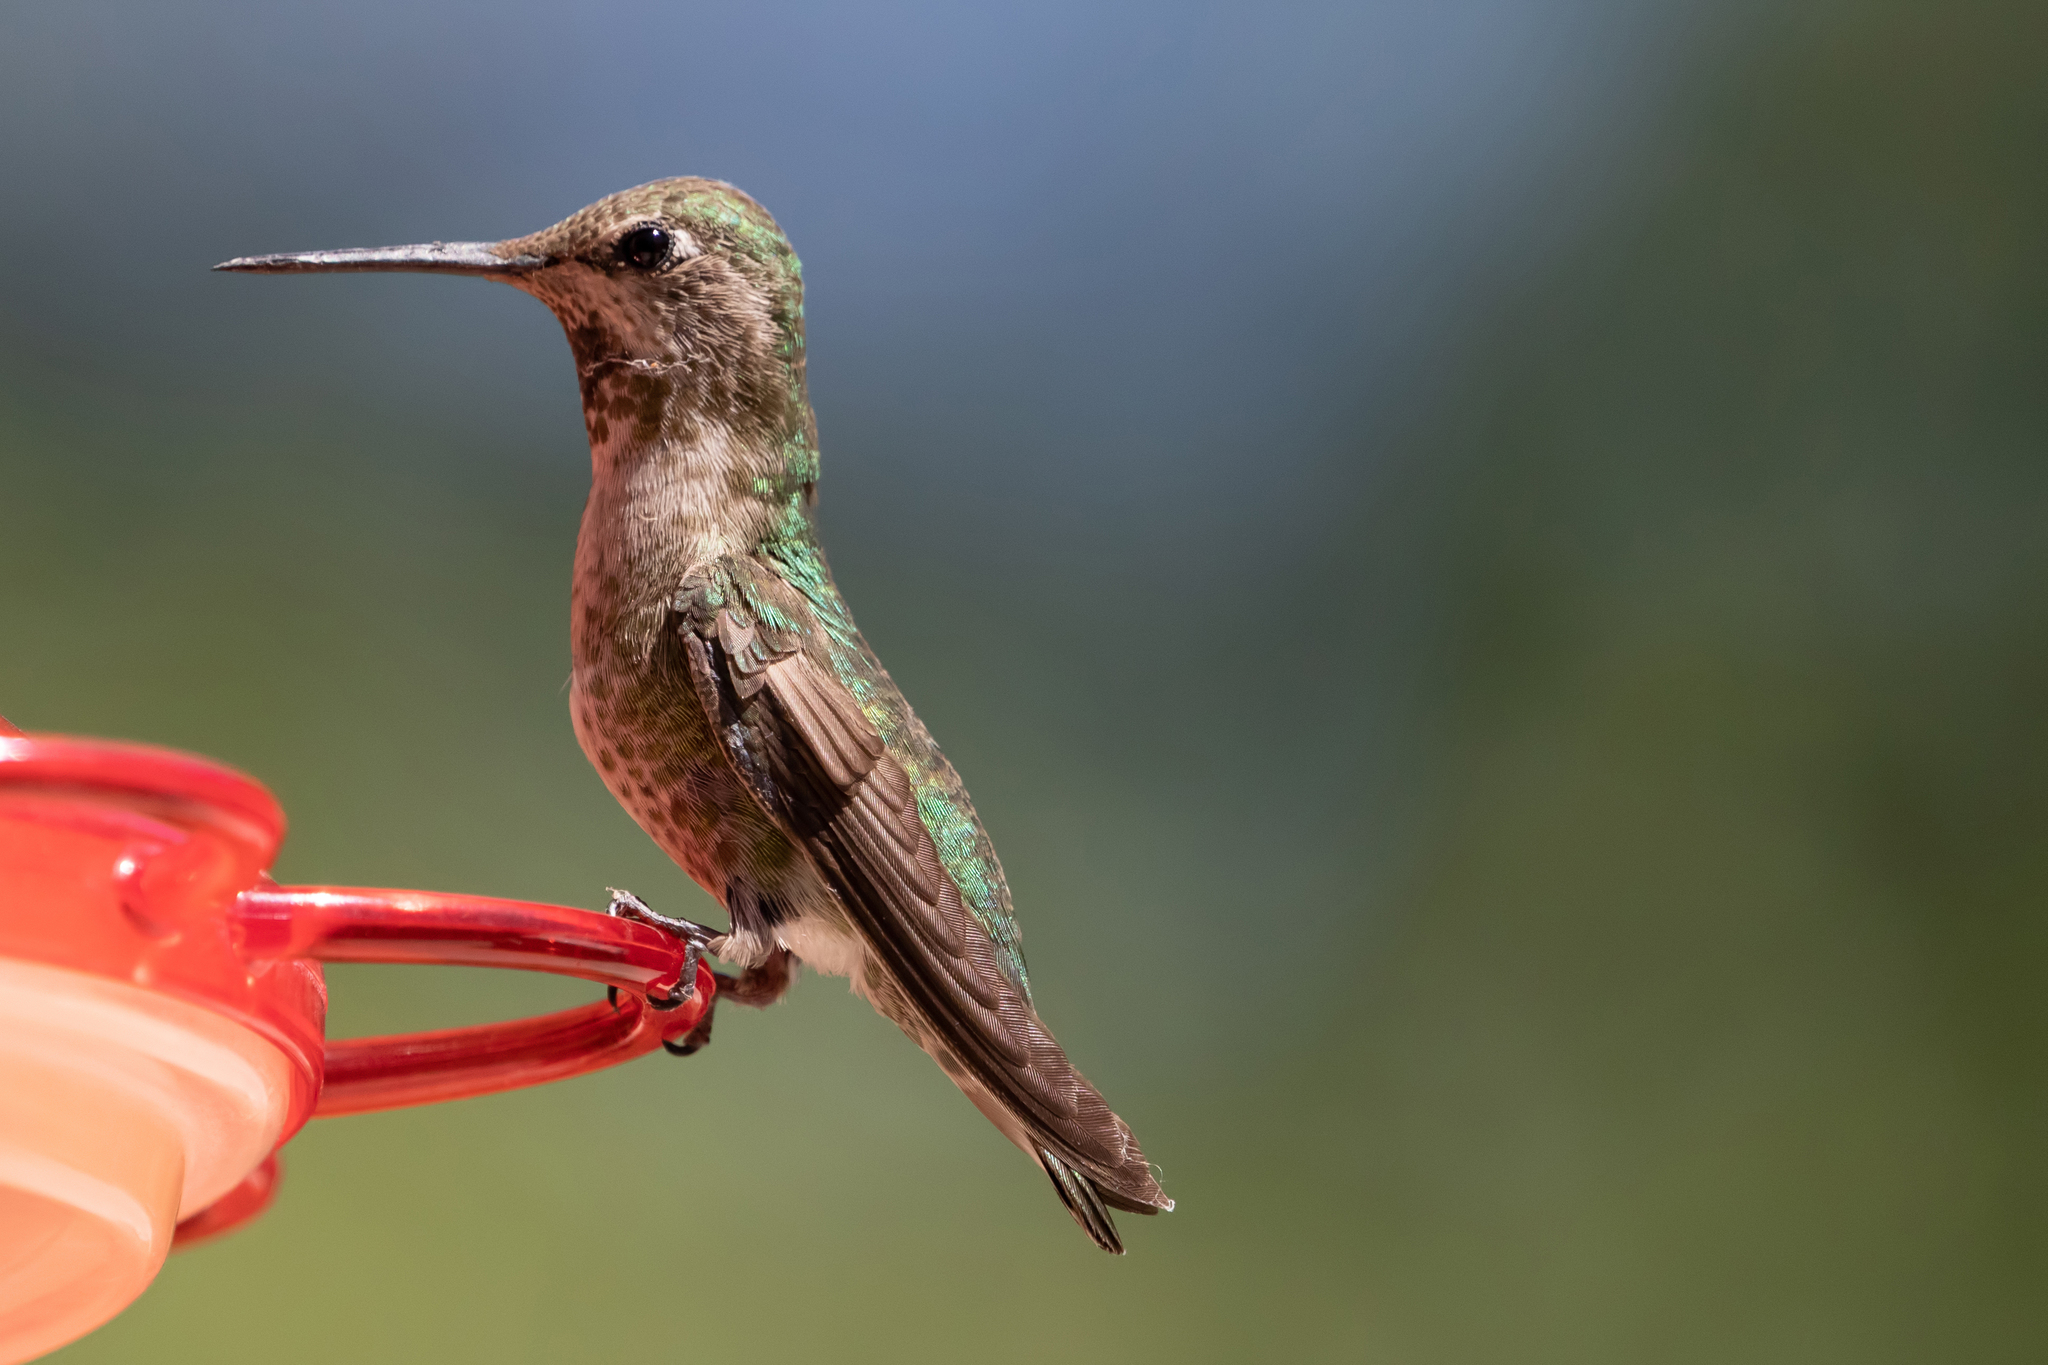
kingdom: Animalia
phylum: Chordata
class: Aves
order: Apodiformes
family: Trochilidae
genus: Calypte
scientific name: Calypte anna
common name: Anna's hummingbird
